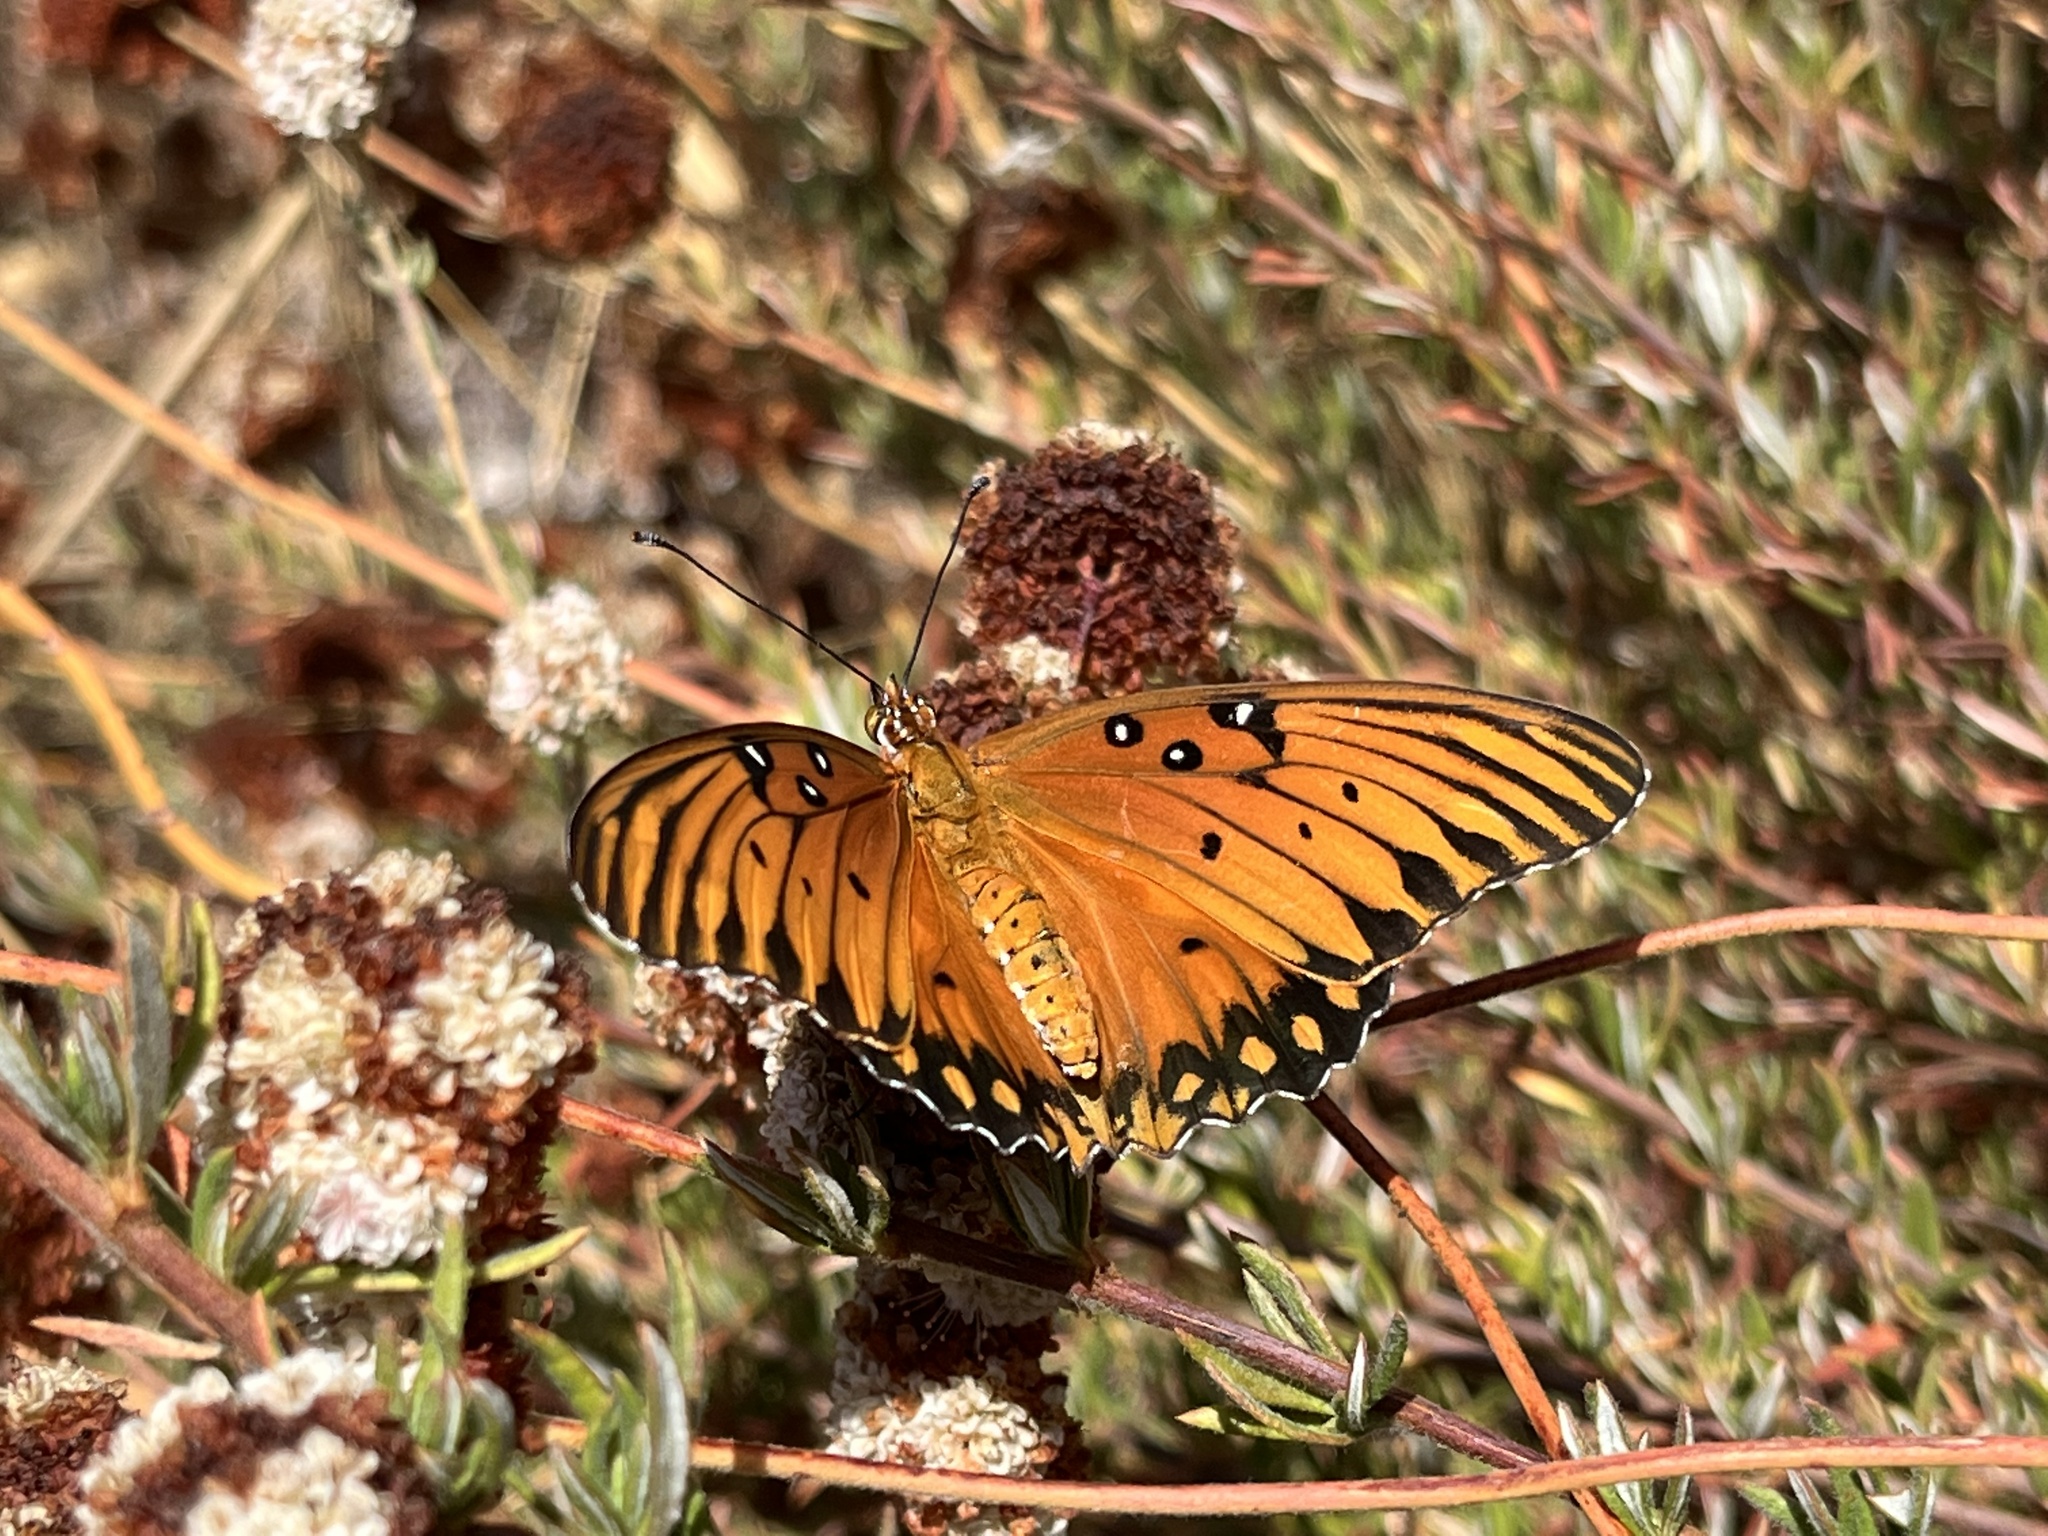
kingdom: Animalia
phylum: Arthropoda
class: Insecta
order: Lepidoptera
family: Nymphalidae
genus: Dione
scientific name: Dione vanillae
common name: Gulf fritillary
